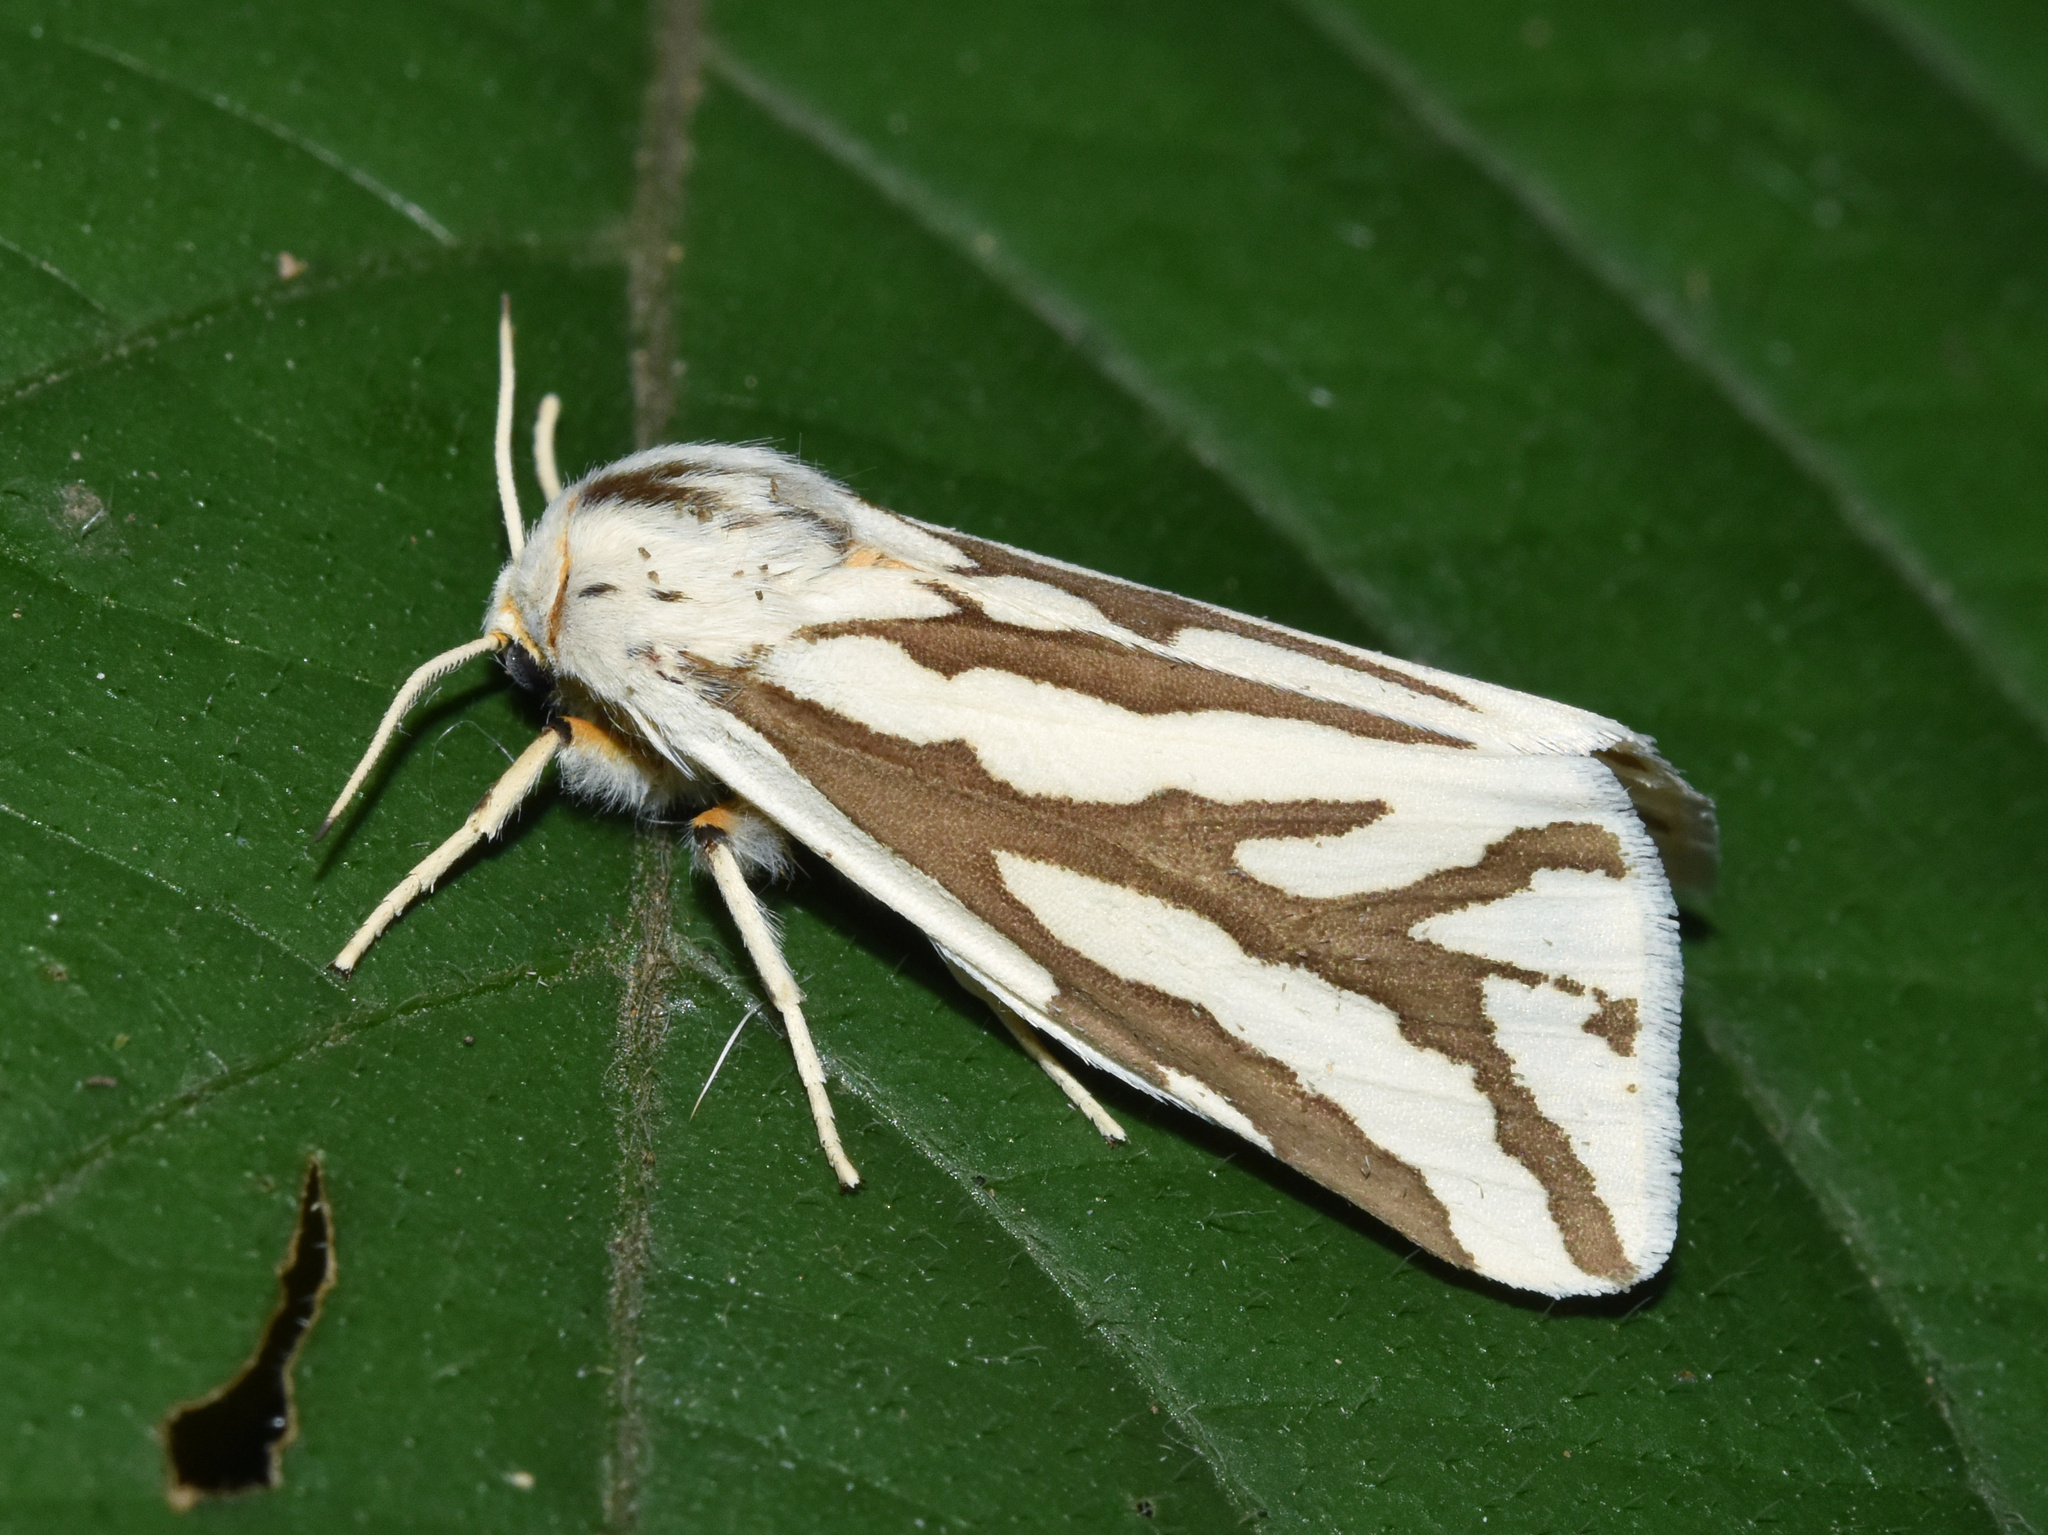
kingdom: Animalia
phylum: Arthropoda
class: Insecta
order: Lepidoptera
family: Erebidae
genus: Paralacydes
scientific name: Paralacydes arborifera
